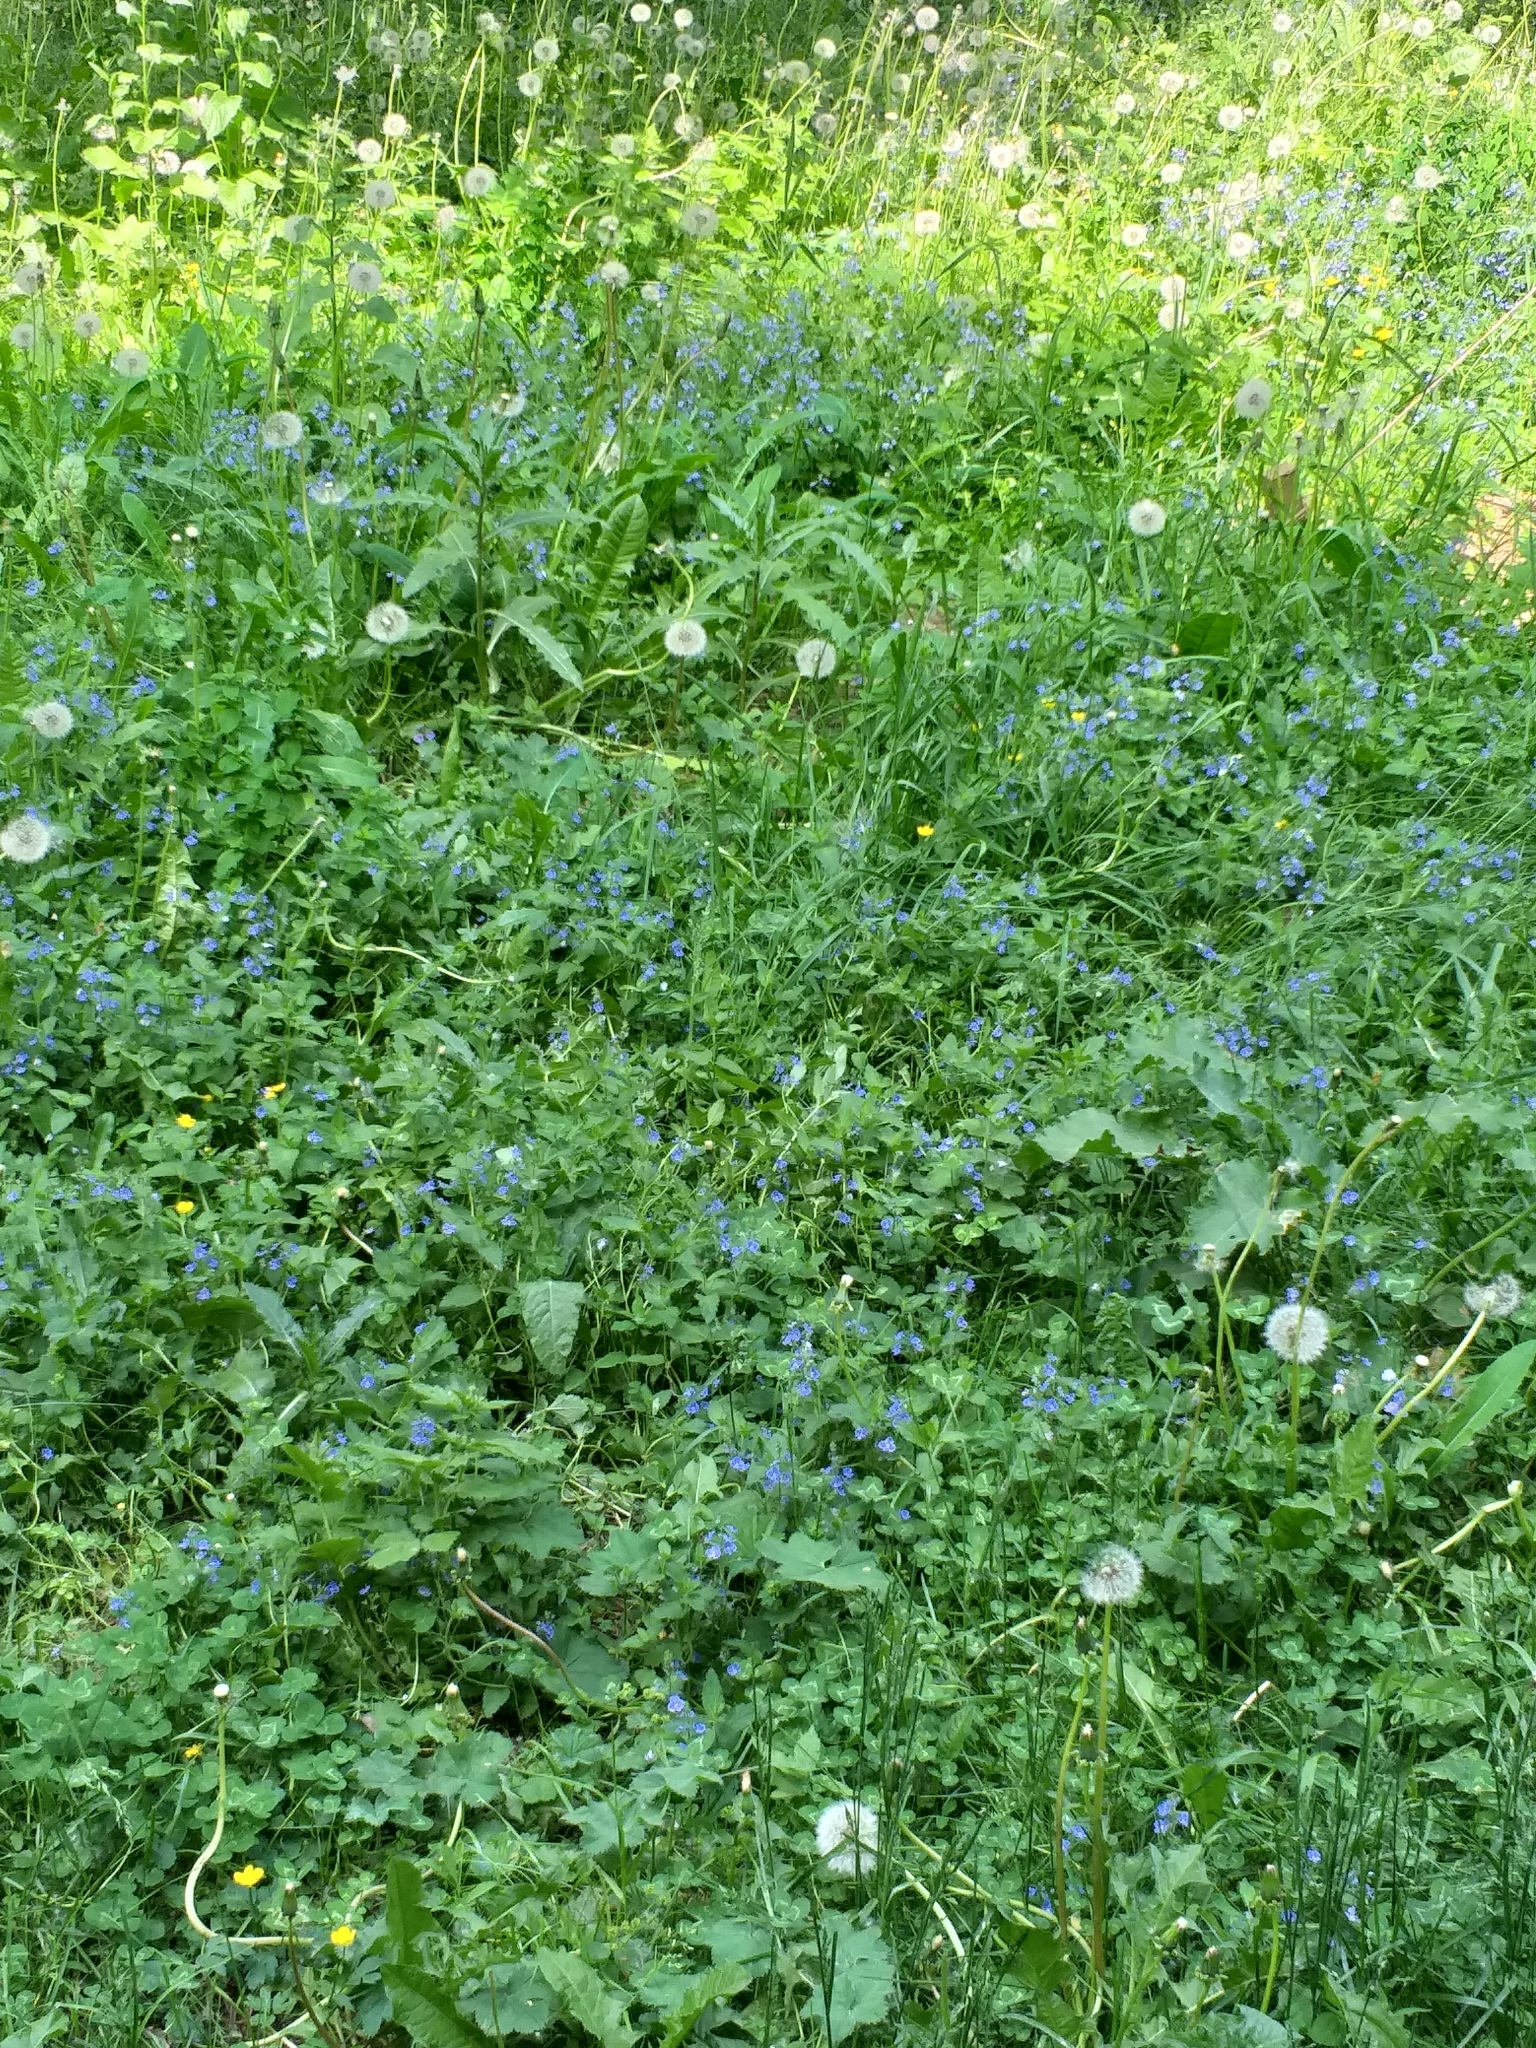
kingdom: Plantae
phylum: Tracheophyta
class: Magnoliopsida
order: Lamiales
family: Plantaginaceae
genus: Veronica
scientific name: Veronica chamaedrys
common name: Germander speedwell
